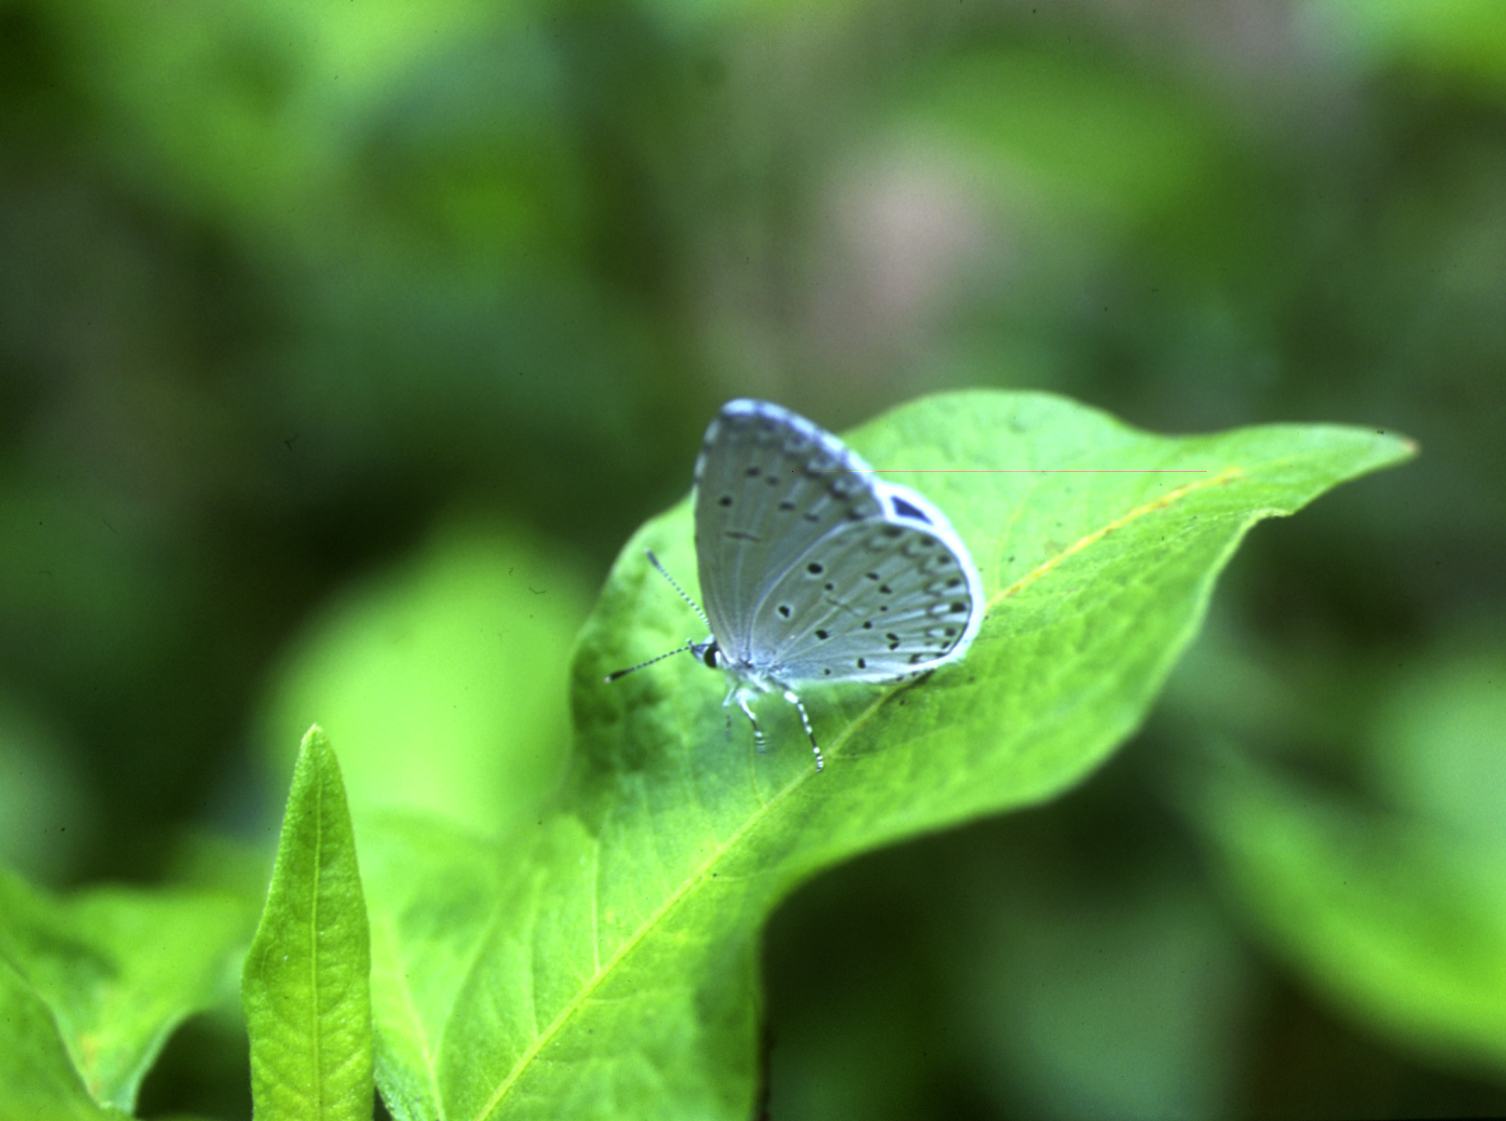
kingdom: Animalia
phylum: Arthropoda
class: Insecta
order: Lepidoptera
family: Lycaenidae
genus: Celastrina
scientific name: Celastrina argiolus
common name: Holly blue
